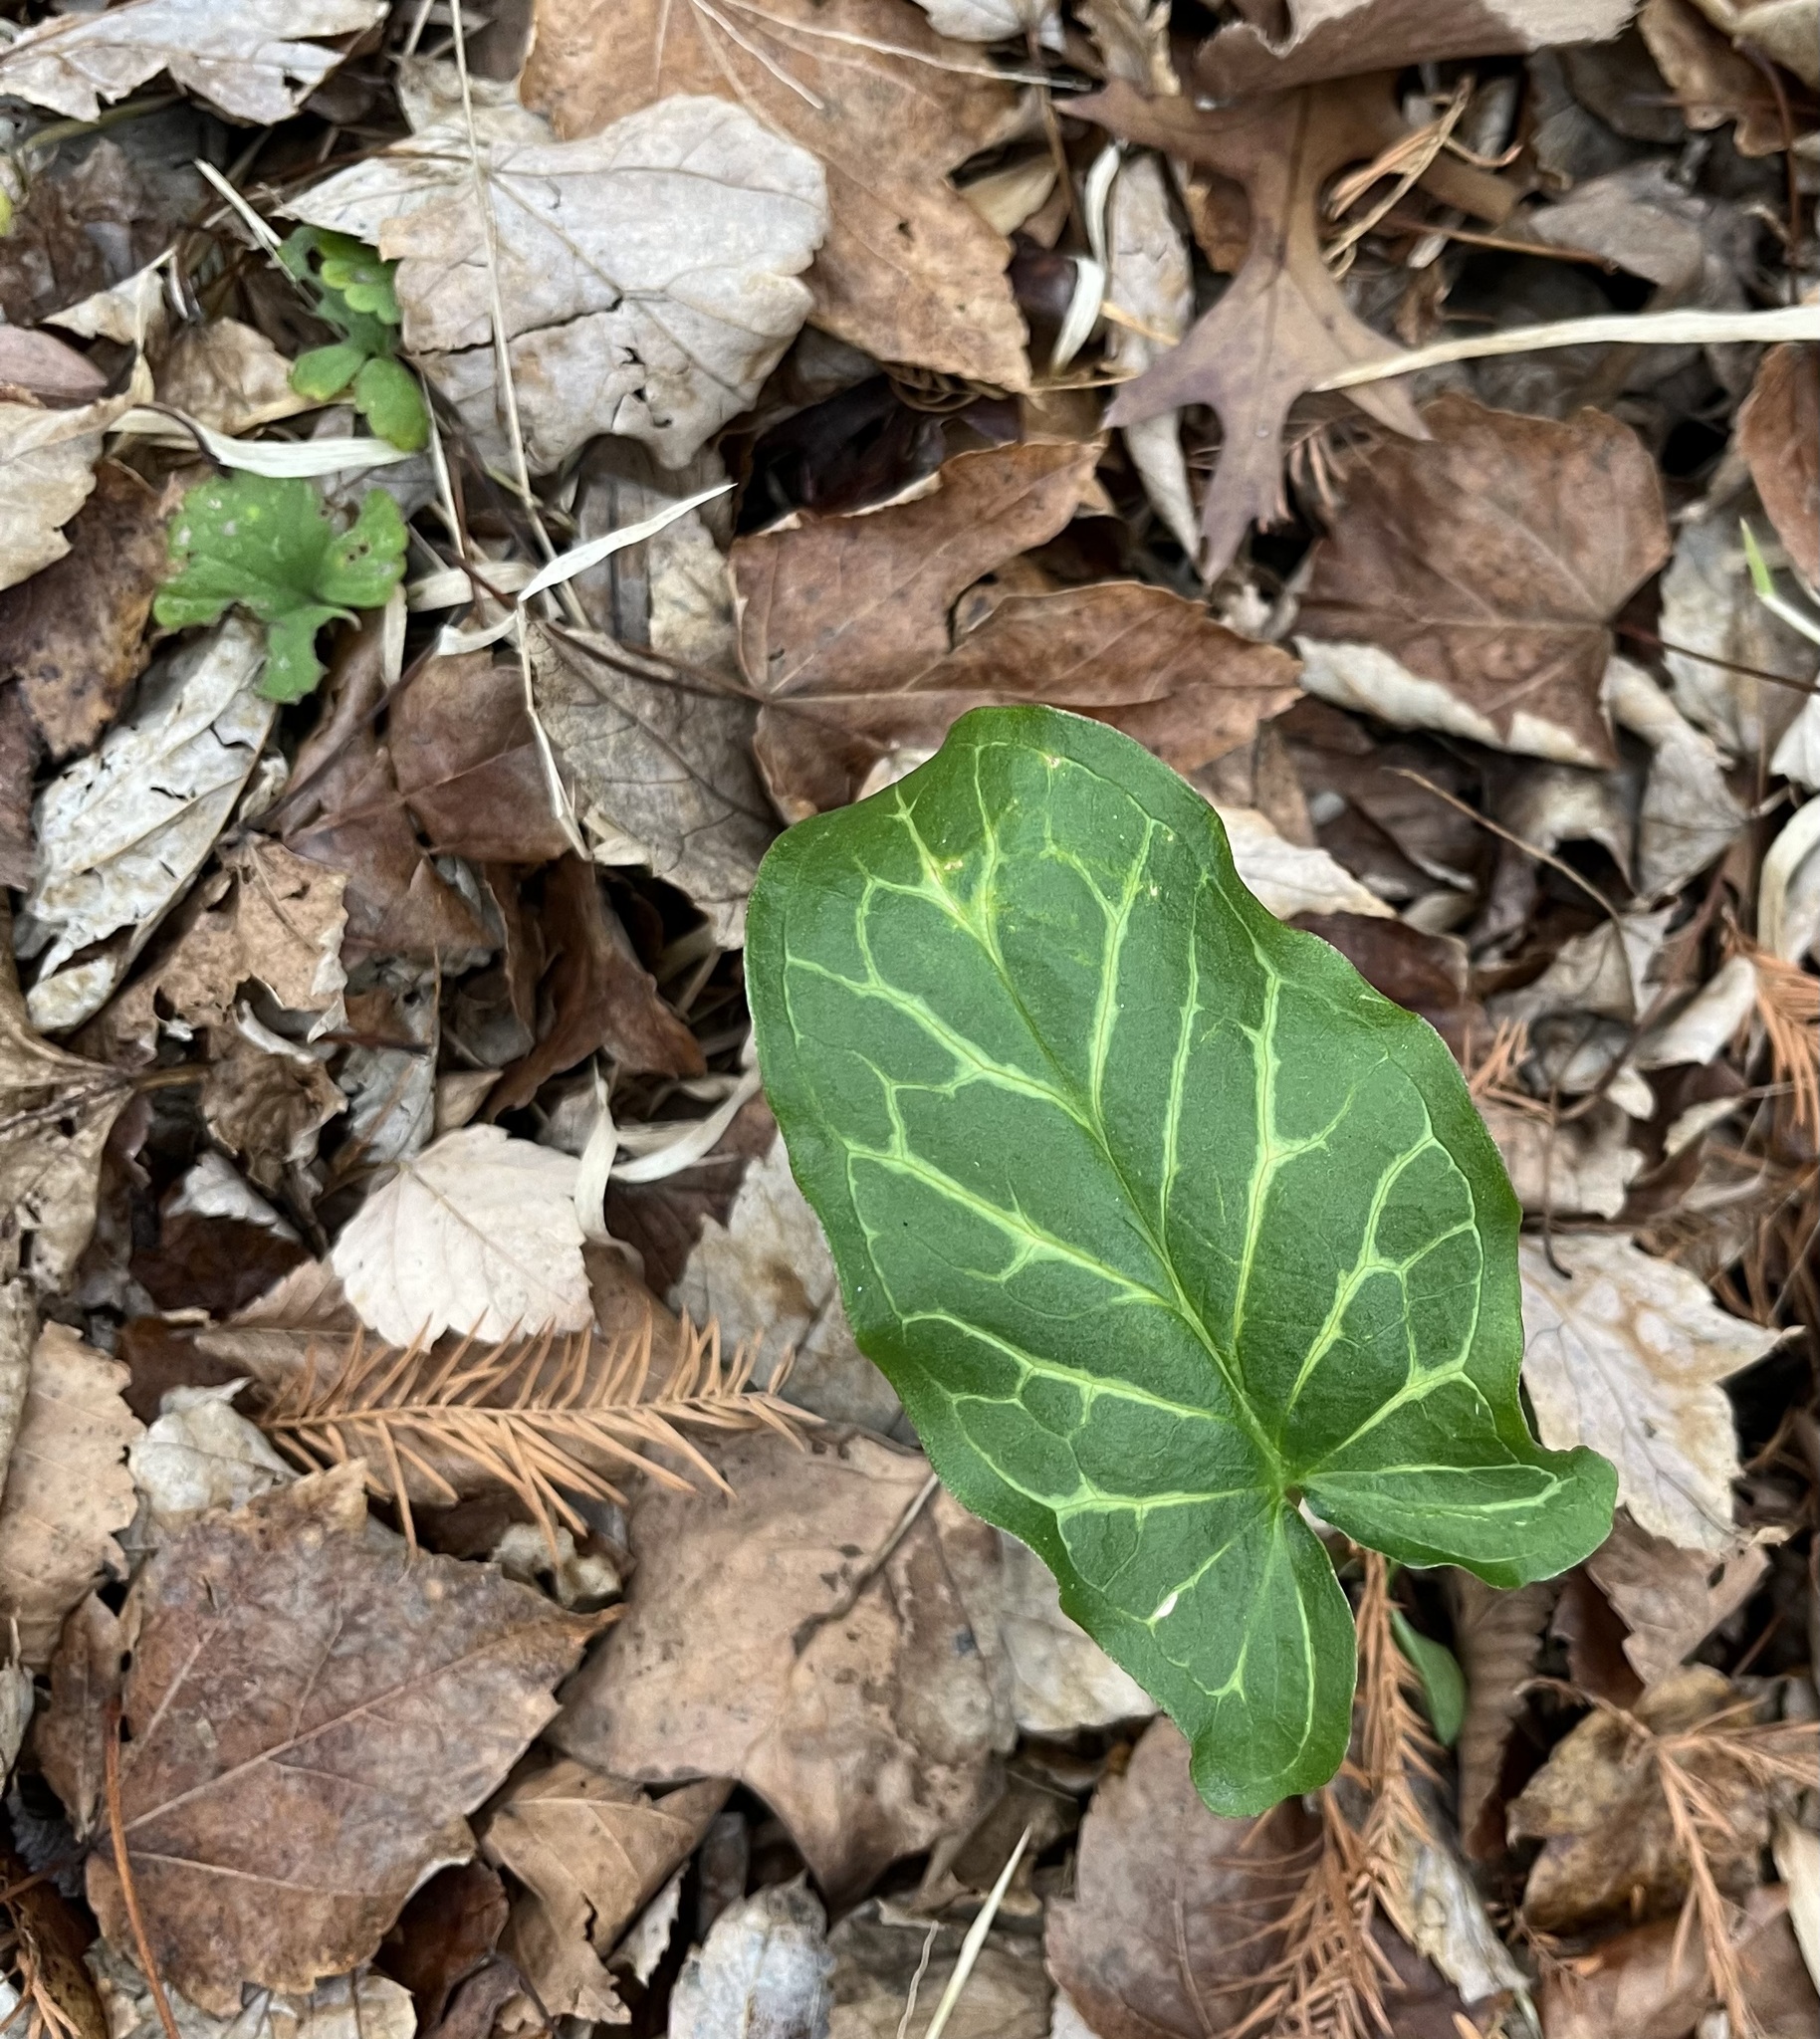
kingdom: Plantae
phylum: Tracheophyta
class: Liliopsida
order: Alismatales
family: Araceae
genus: Arum
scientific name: Arum italicum
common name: Italian lords-and-ladies
